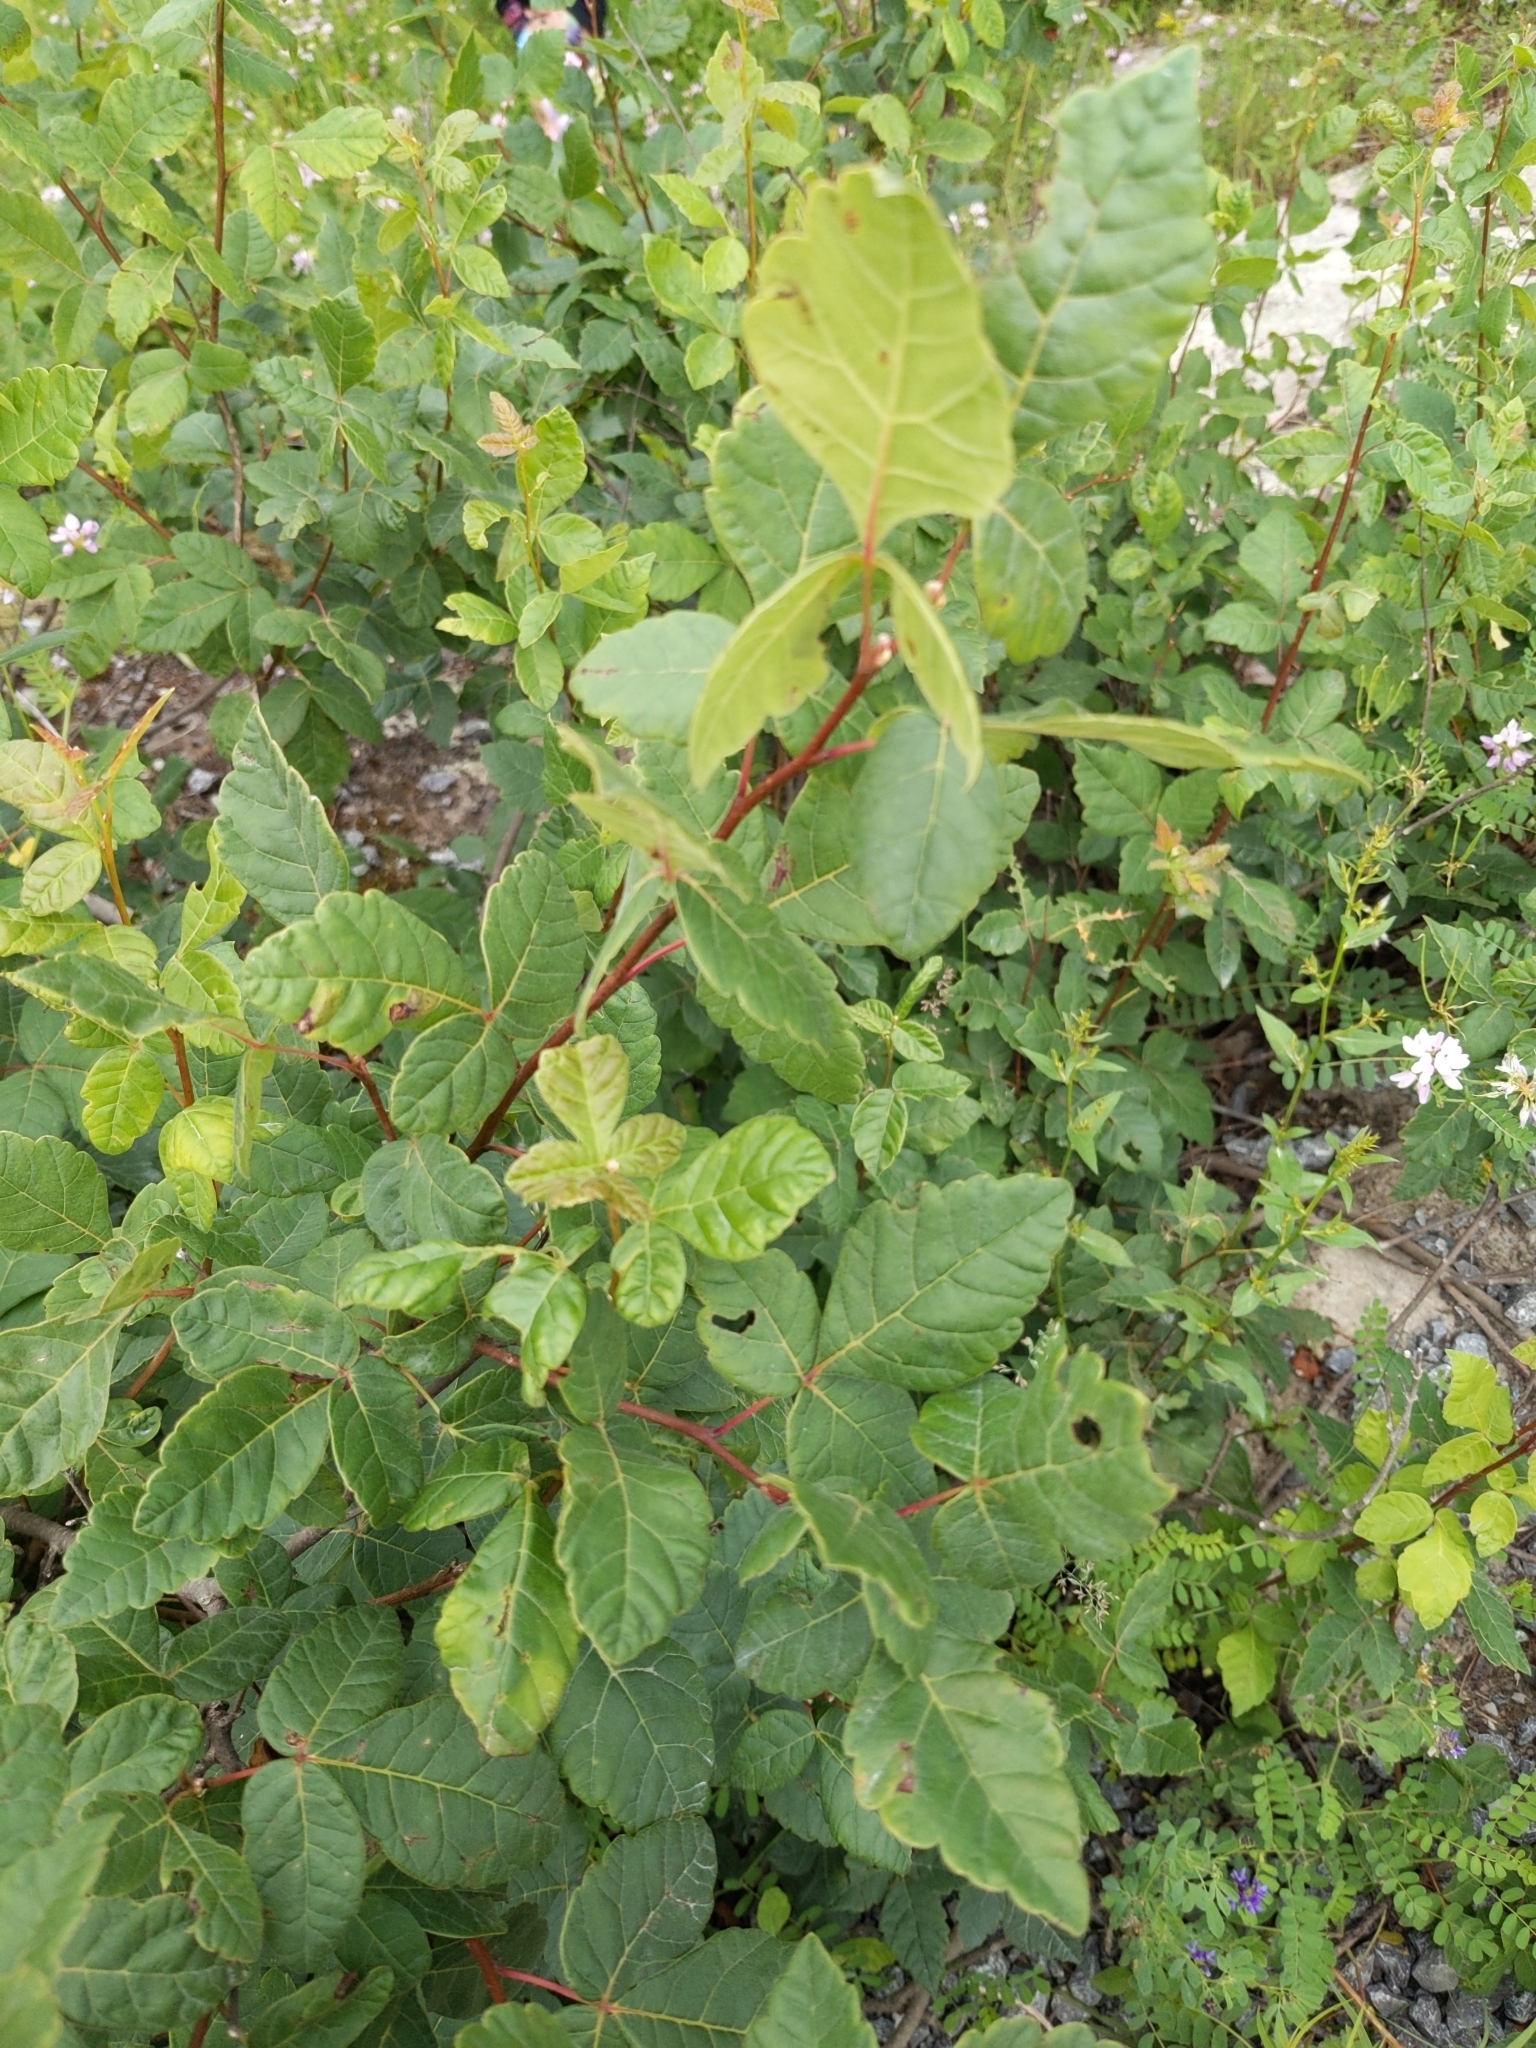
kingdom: Plantae
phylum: Tracheophyta
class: Magnoliopsida
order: Sapindales
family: Anacardiaceae
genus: Rhus
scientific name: Rhus aromatica
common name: Aromatic sumac
